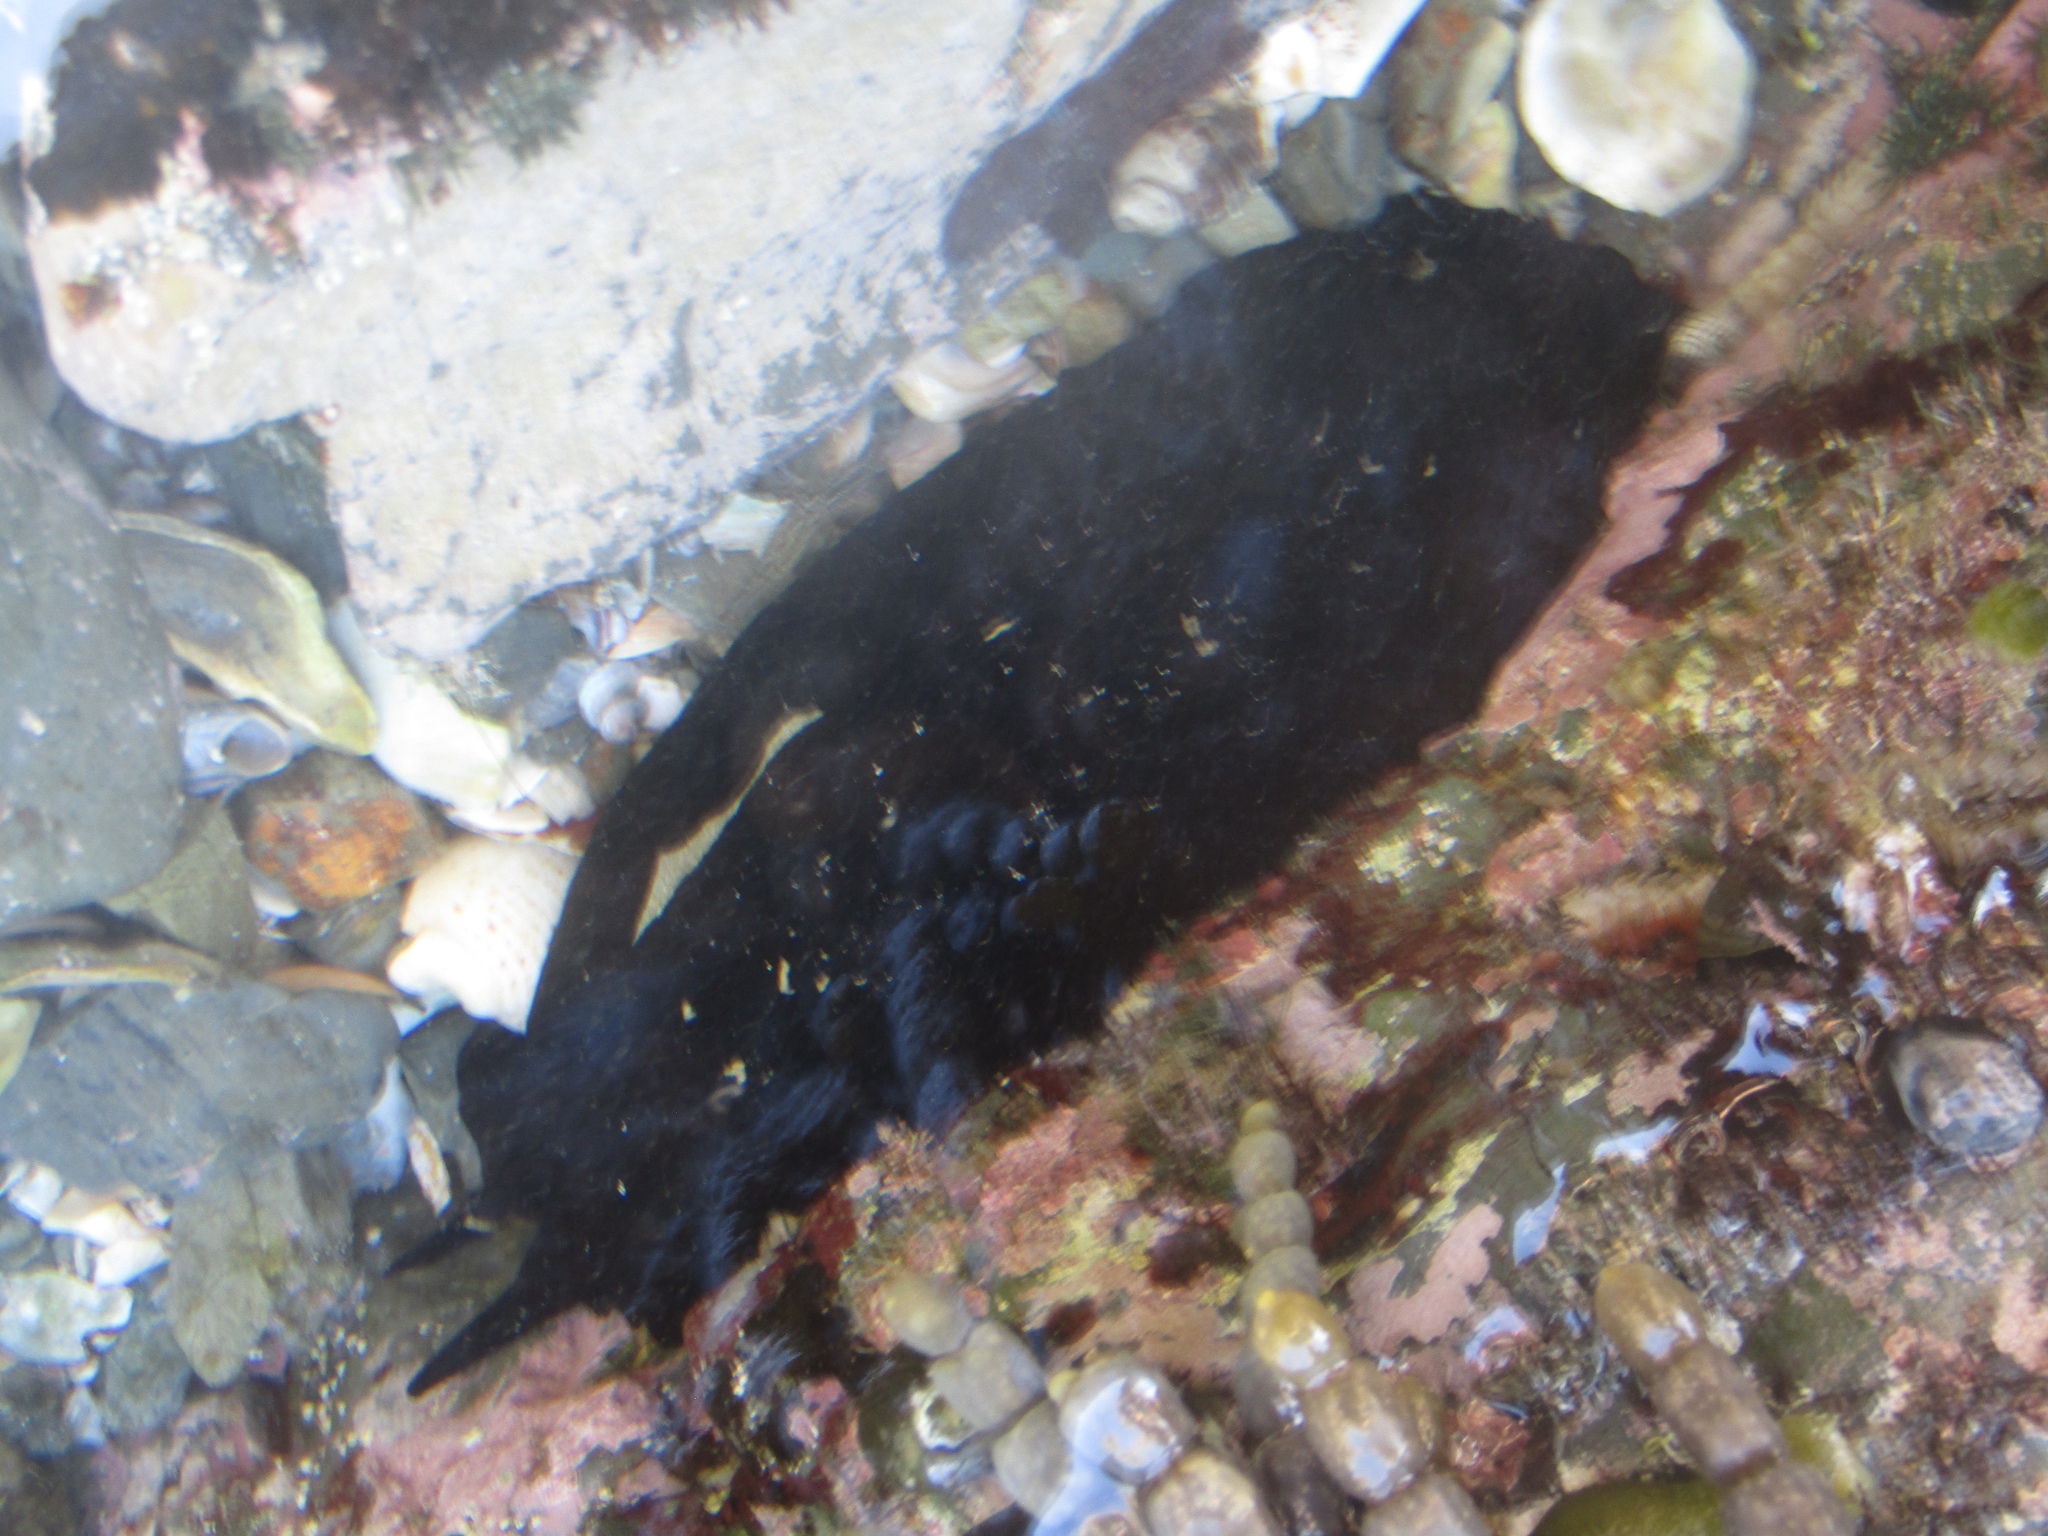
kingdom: Animalia
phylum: Mollusca
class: Gastropoda
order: Lepetellida
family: Fissurellidae
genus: Scutus
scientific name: Scutus breviculus
